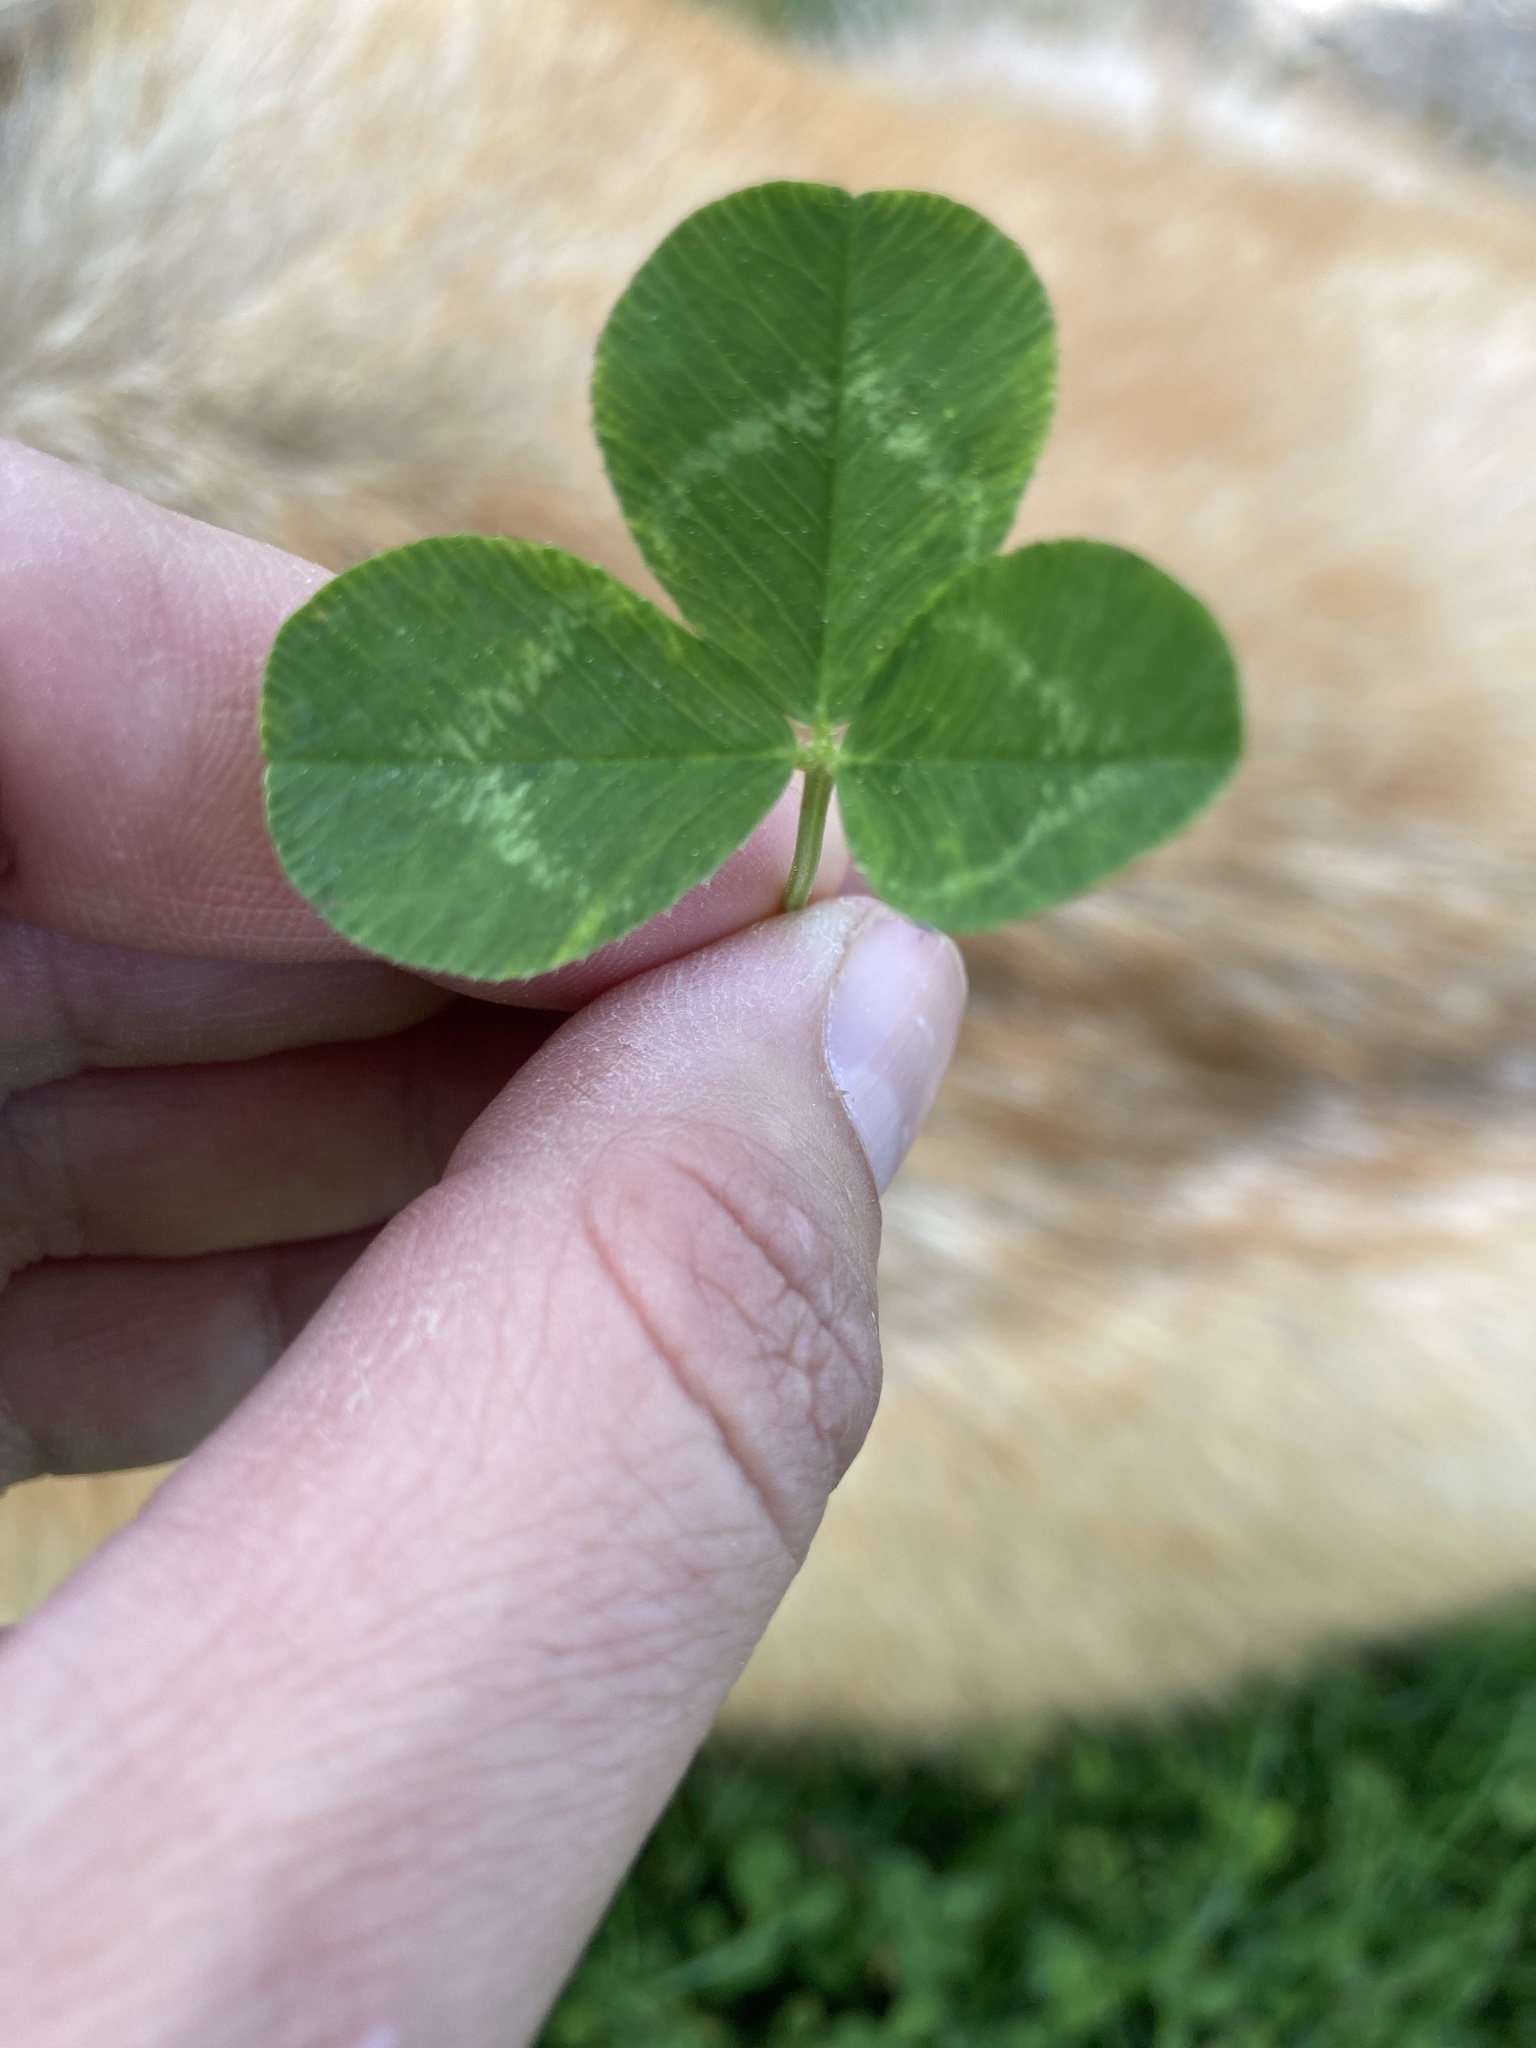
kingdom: Plantae
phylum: Tracheophyta
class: Magnoliopsida
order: Fabales
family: Fabaceae
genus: Trifolium
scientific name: Trifolium repens
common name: White clover
